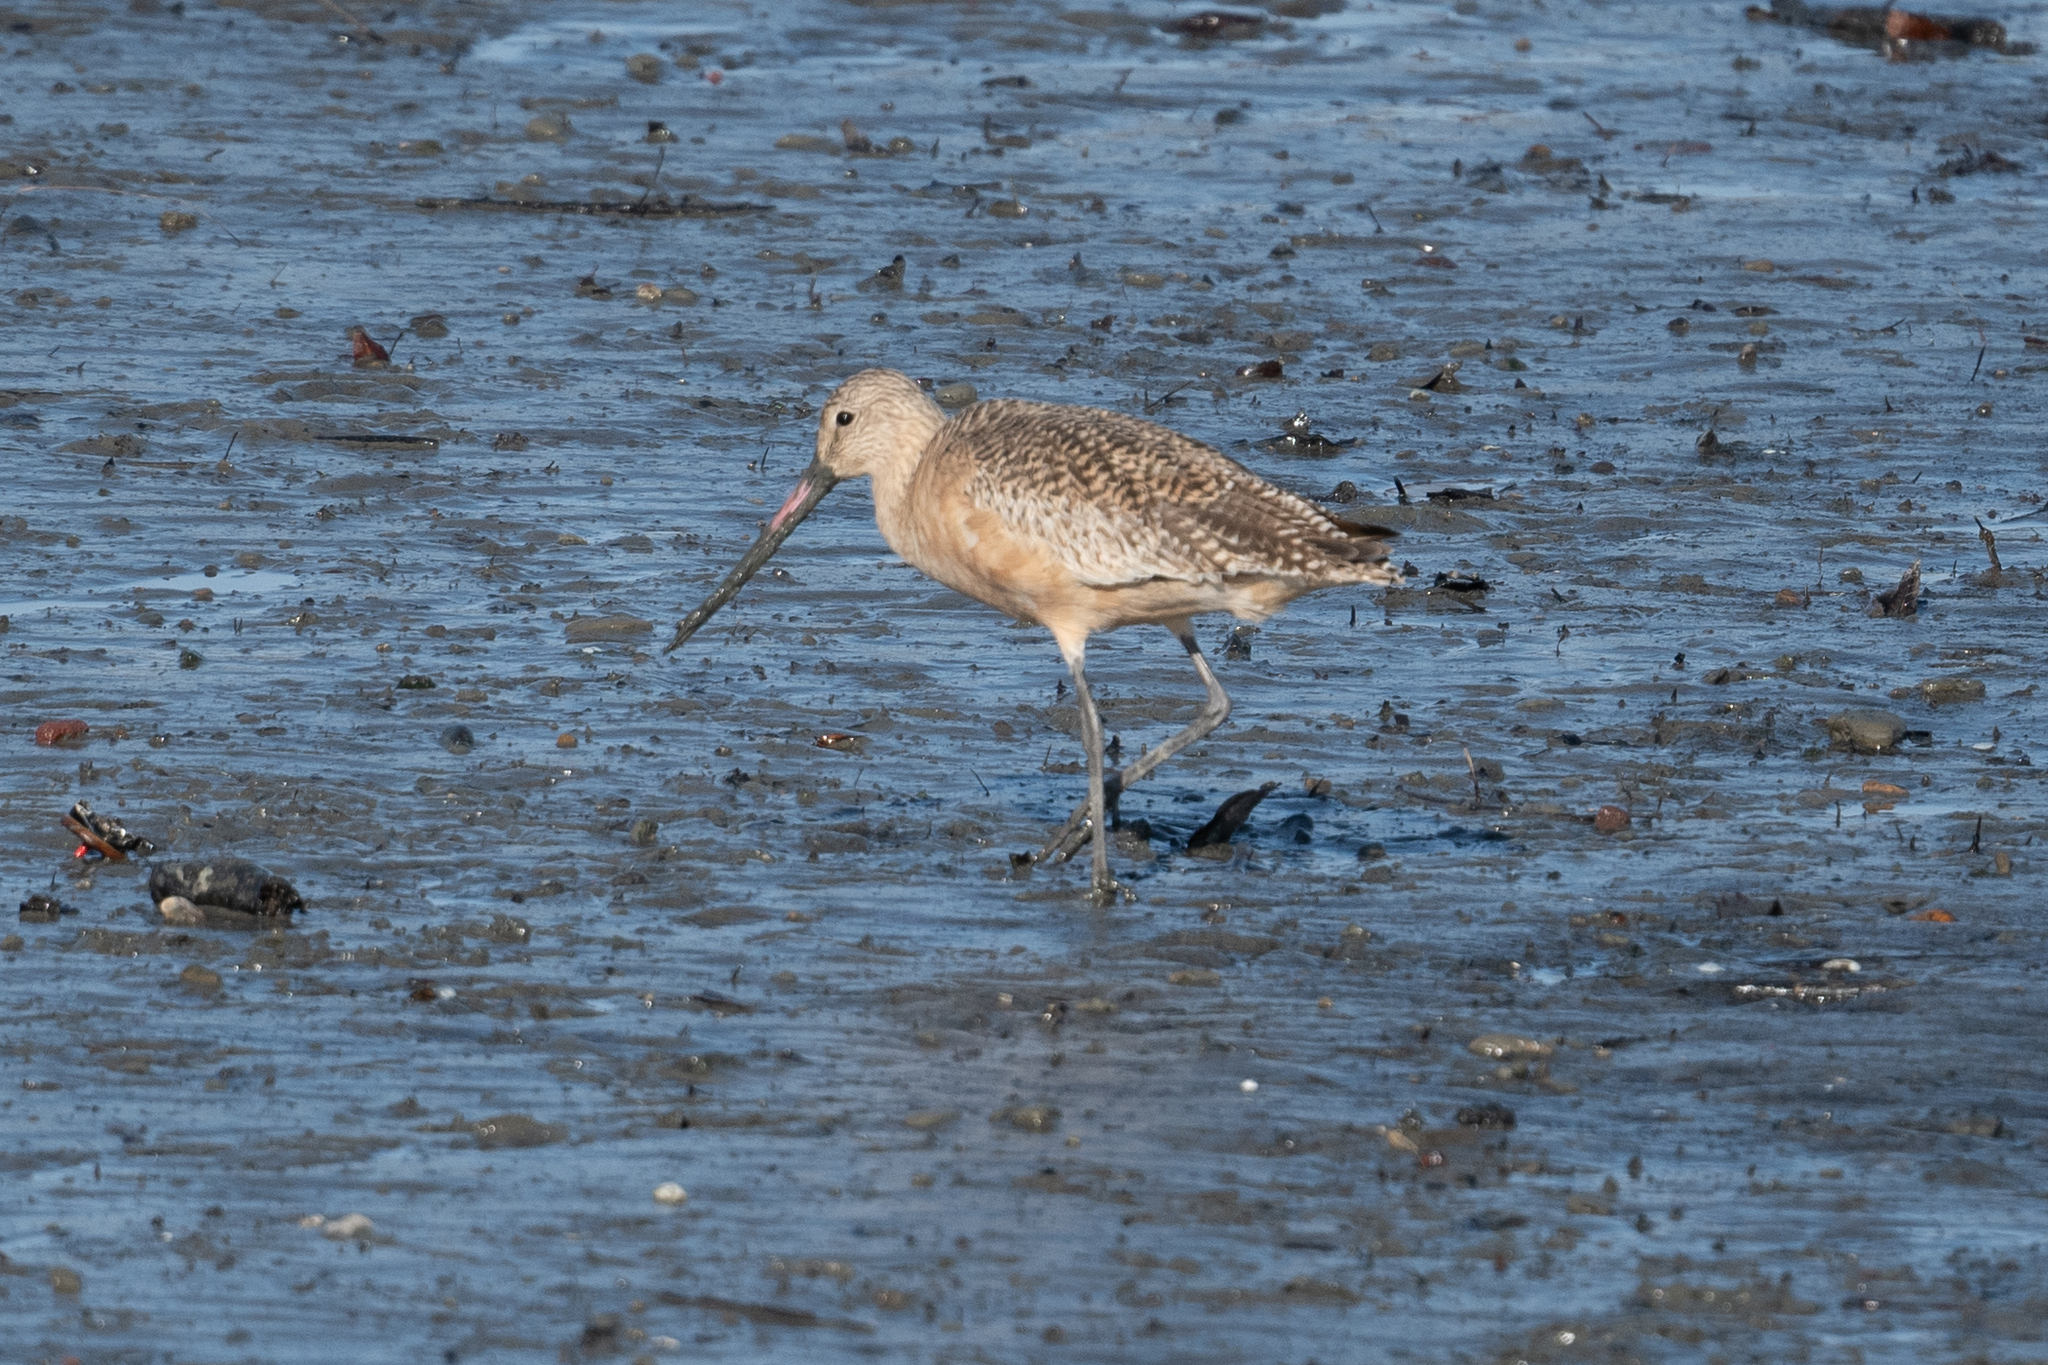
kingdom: Animalia
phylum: Chordata
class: Aves
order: Charadriiformes
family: Scolopacidae
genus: Limosa
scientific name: Limosa fedoa
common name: Marbled godwit
